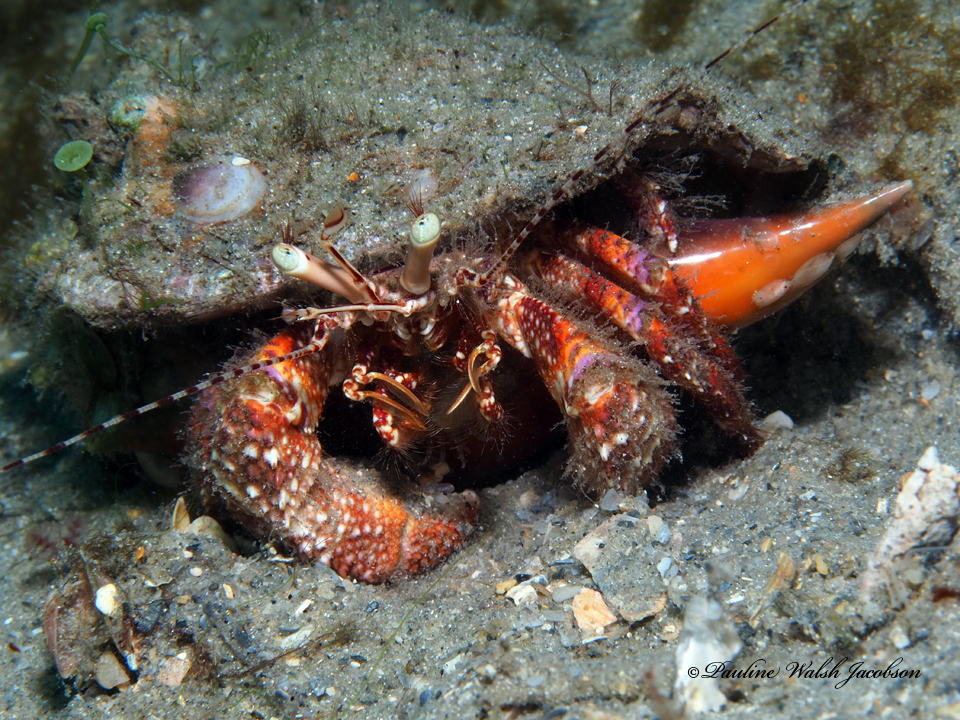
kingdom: Animalia
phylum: Arthropoda
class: Malacostraca
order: Decapoda
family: Diogenidae
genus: Petrochirus
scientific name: Petrochirus diogenes
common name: Giant hermit crab
